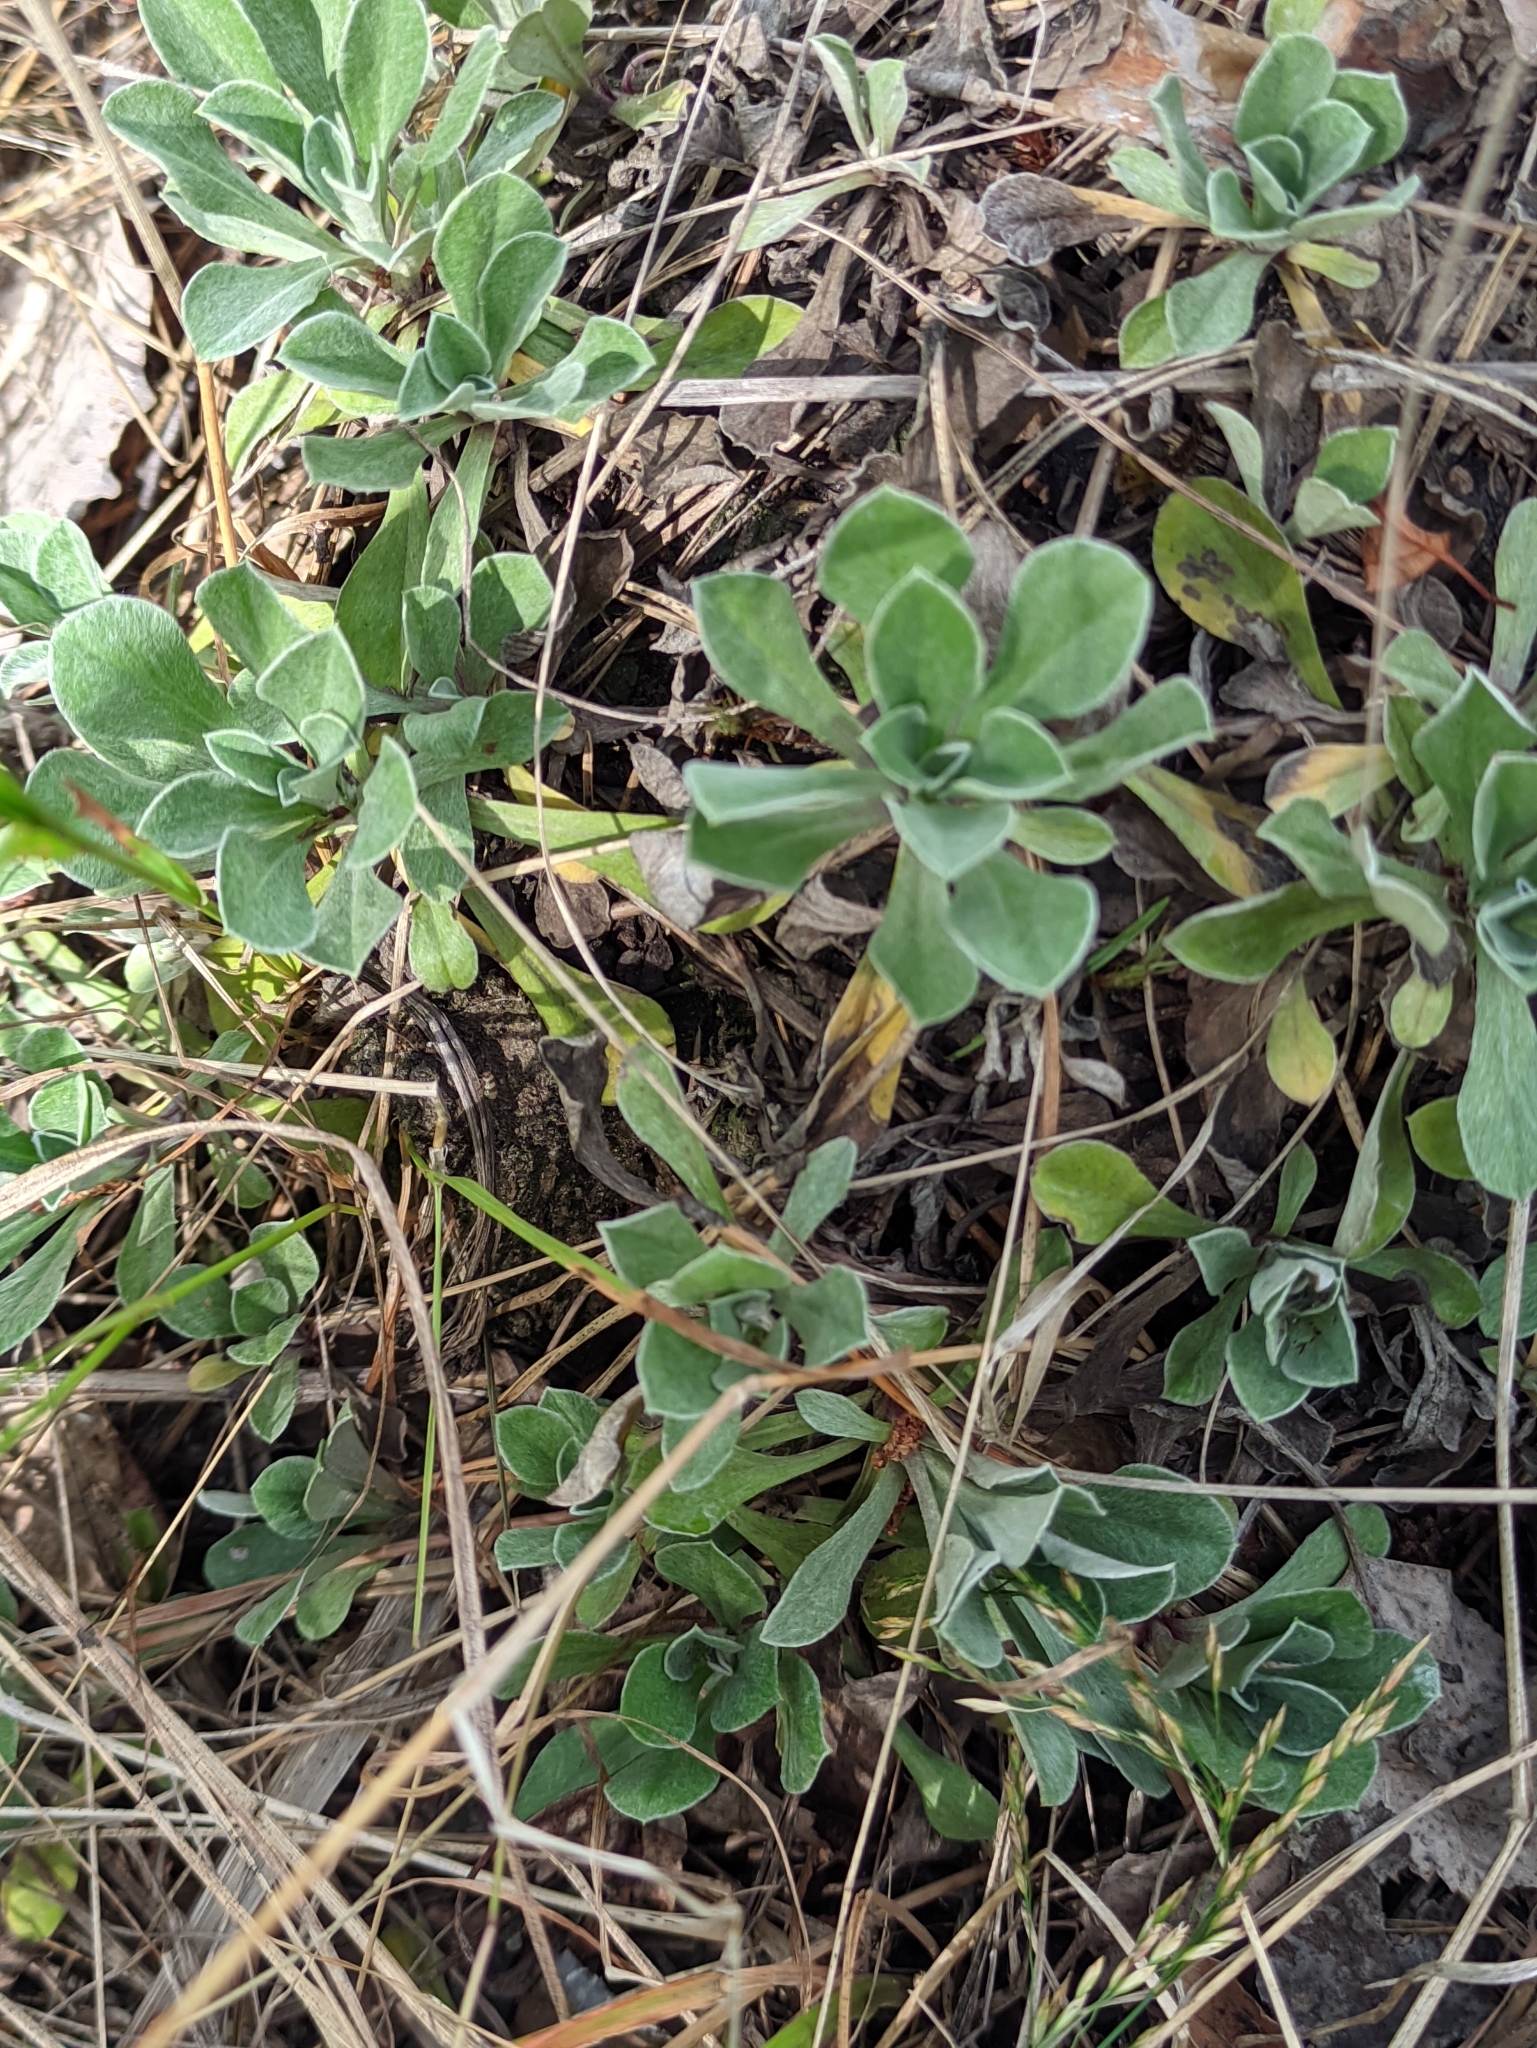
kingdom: Plantae
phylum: Tracheophyta
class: Magnoliopsida
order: Asterales
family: Asteraceae
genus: Antennaria
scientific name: Antennaria dioica
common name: Mountain everlasting
